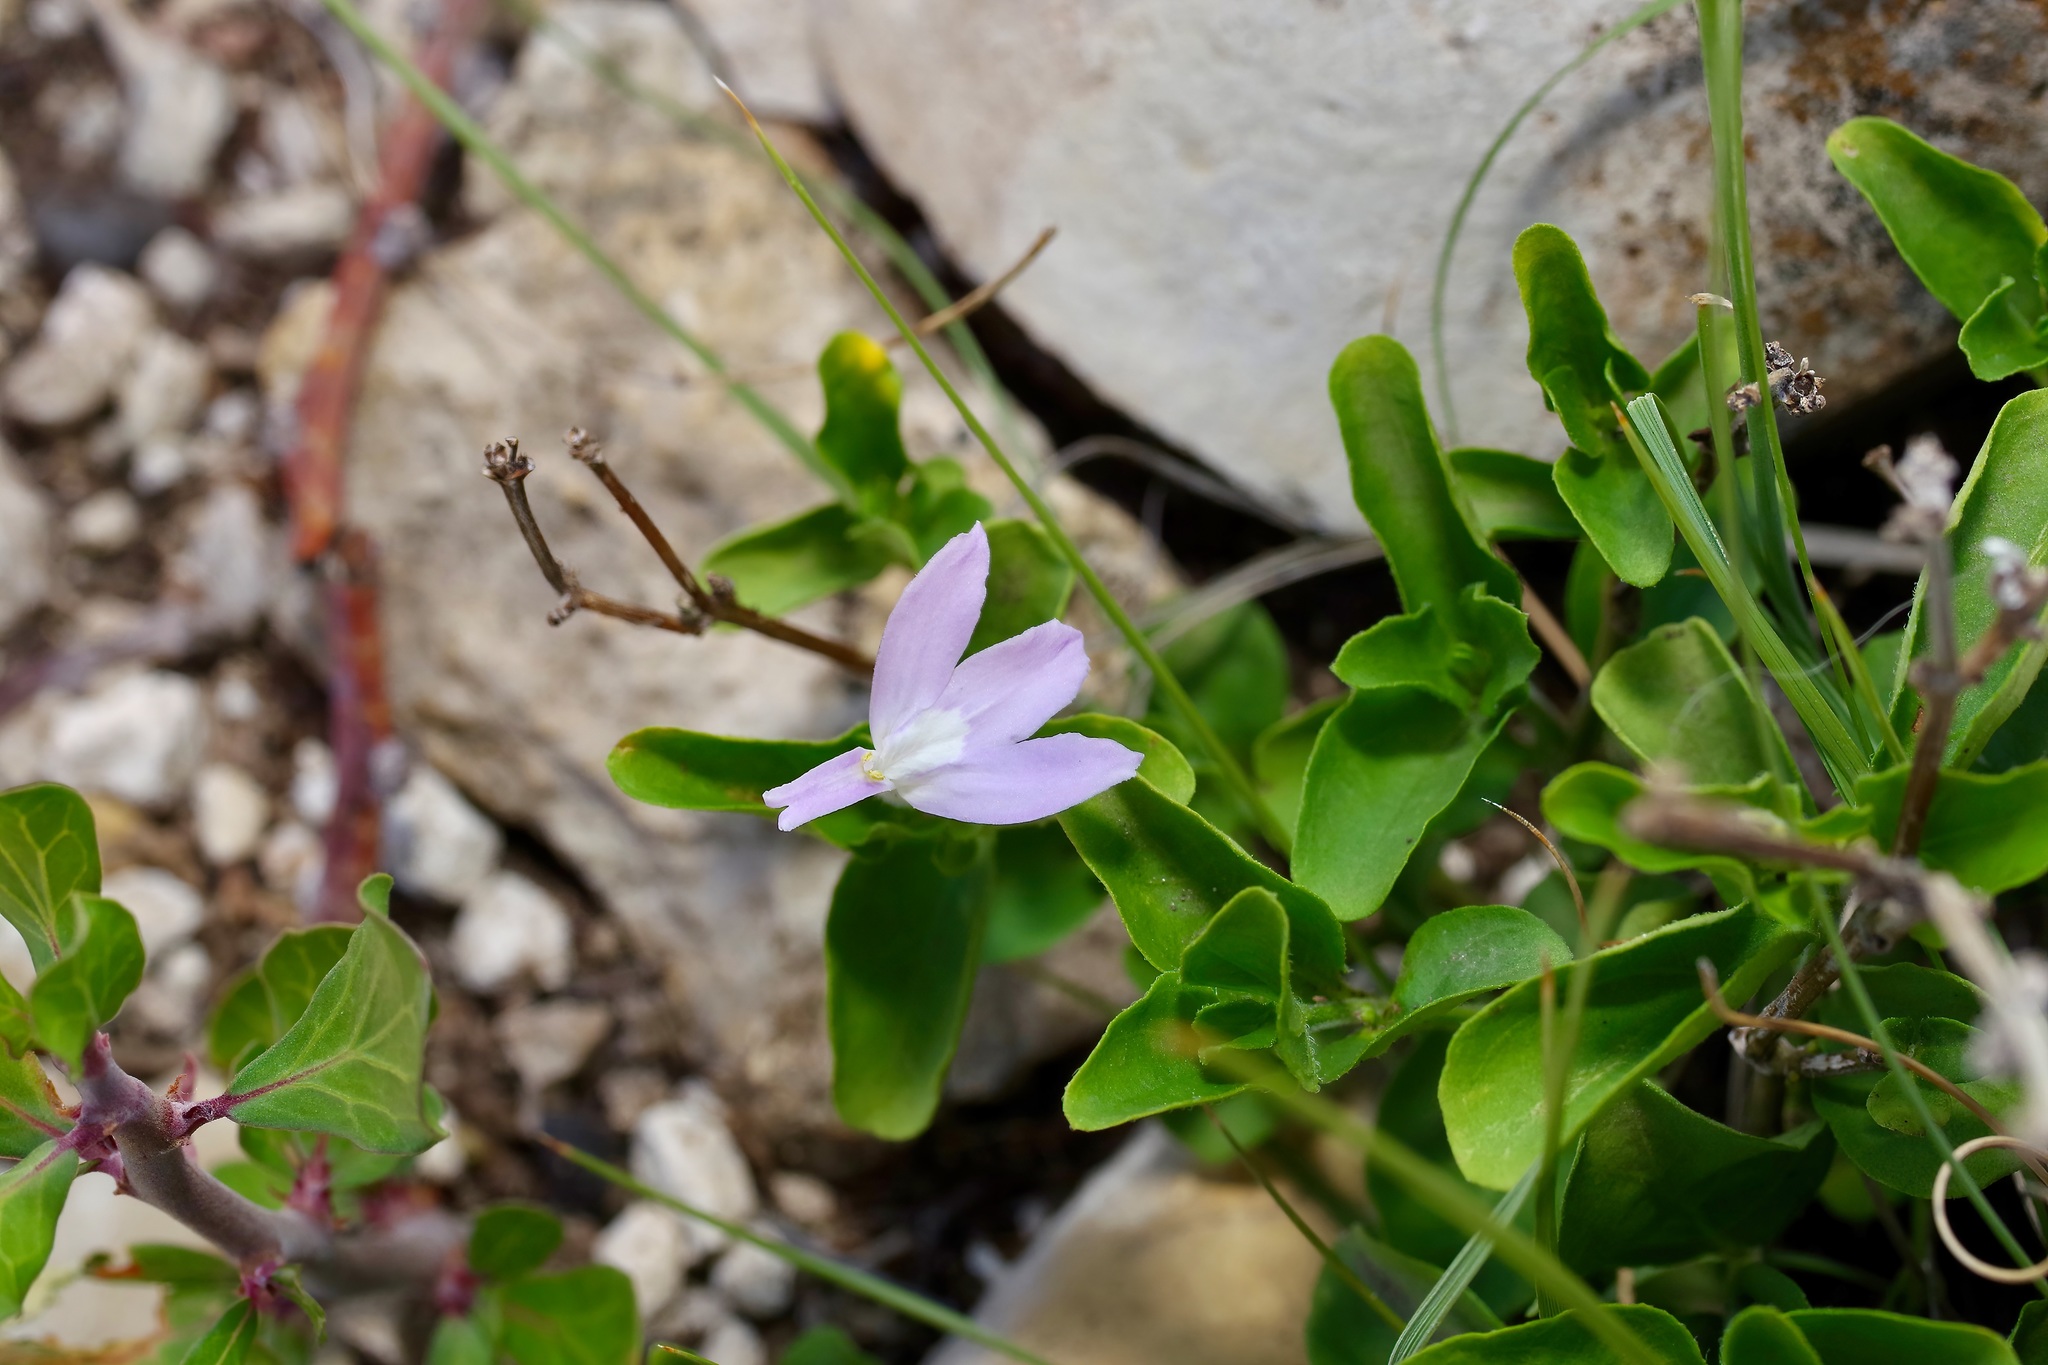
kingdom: Plantae
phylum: Tracheophyta
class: Magnoliopsida
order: Lamiales
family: Acanthaceae
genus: Justicia
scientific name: Justicia pilosella
